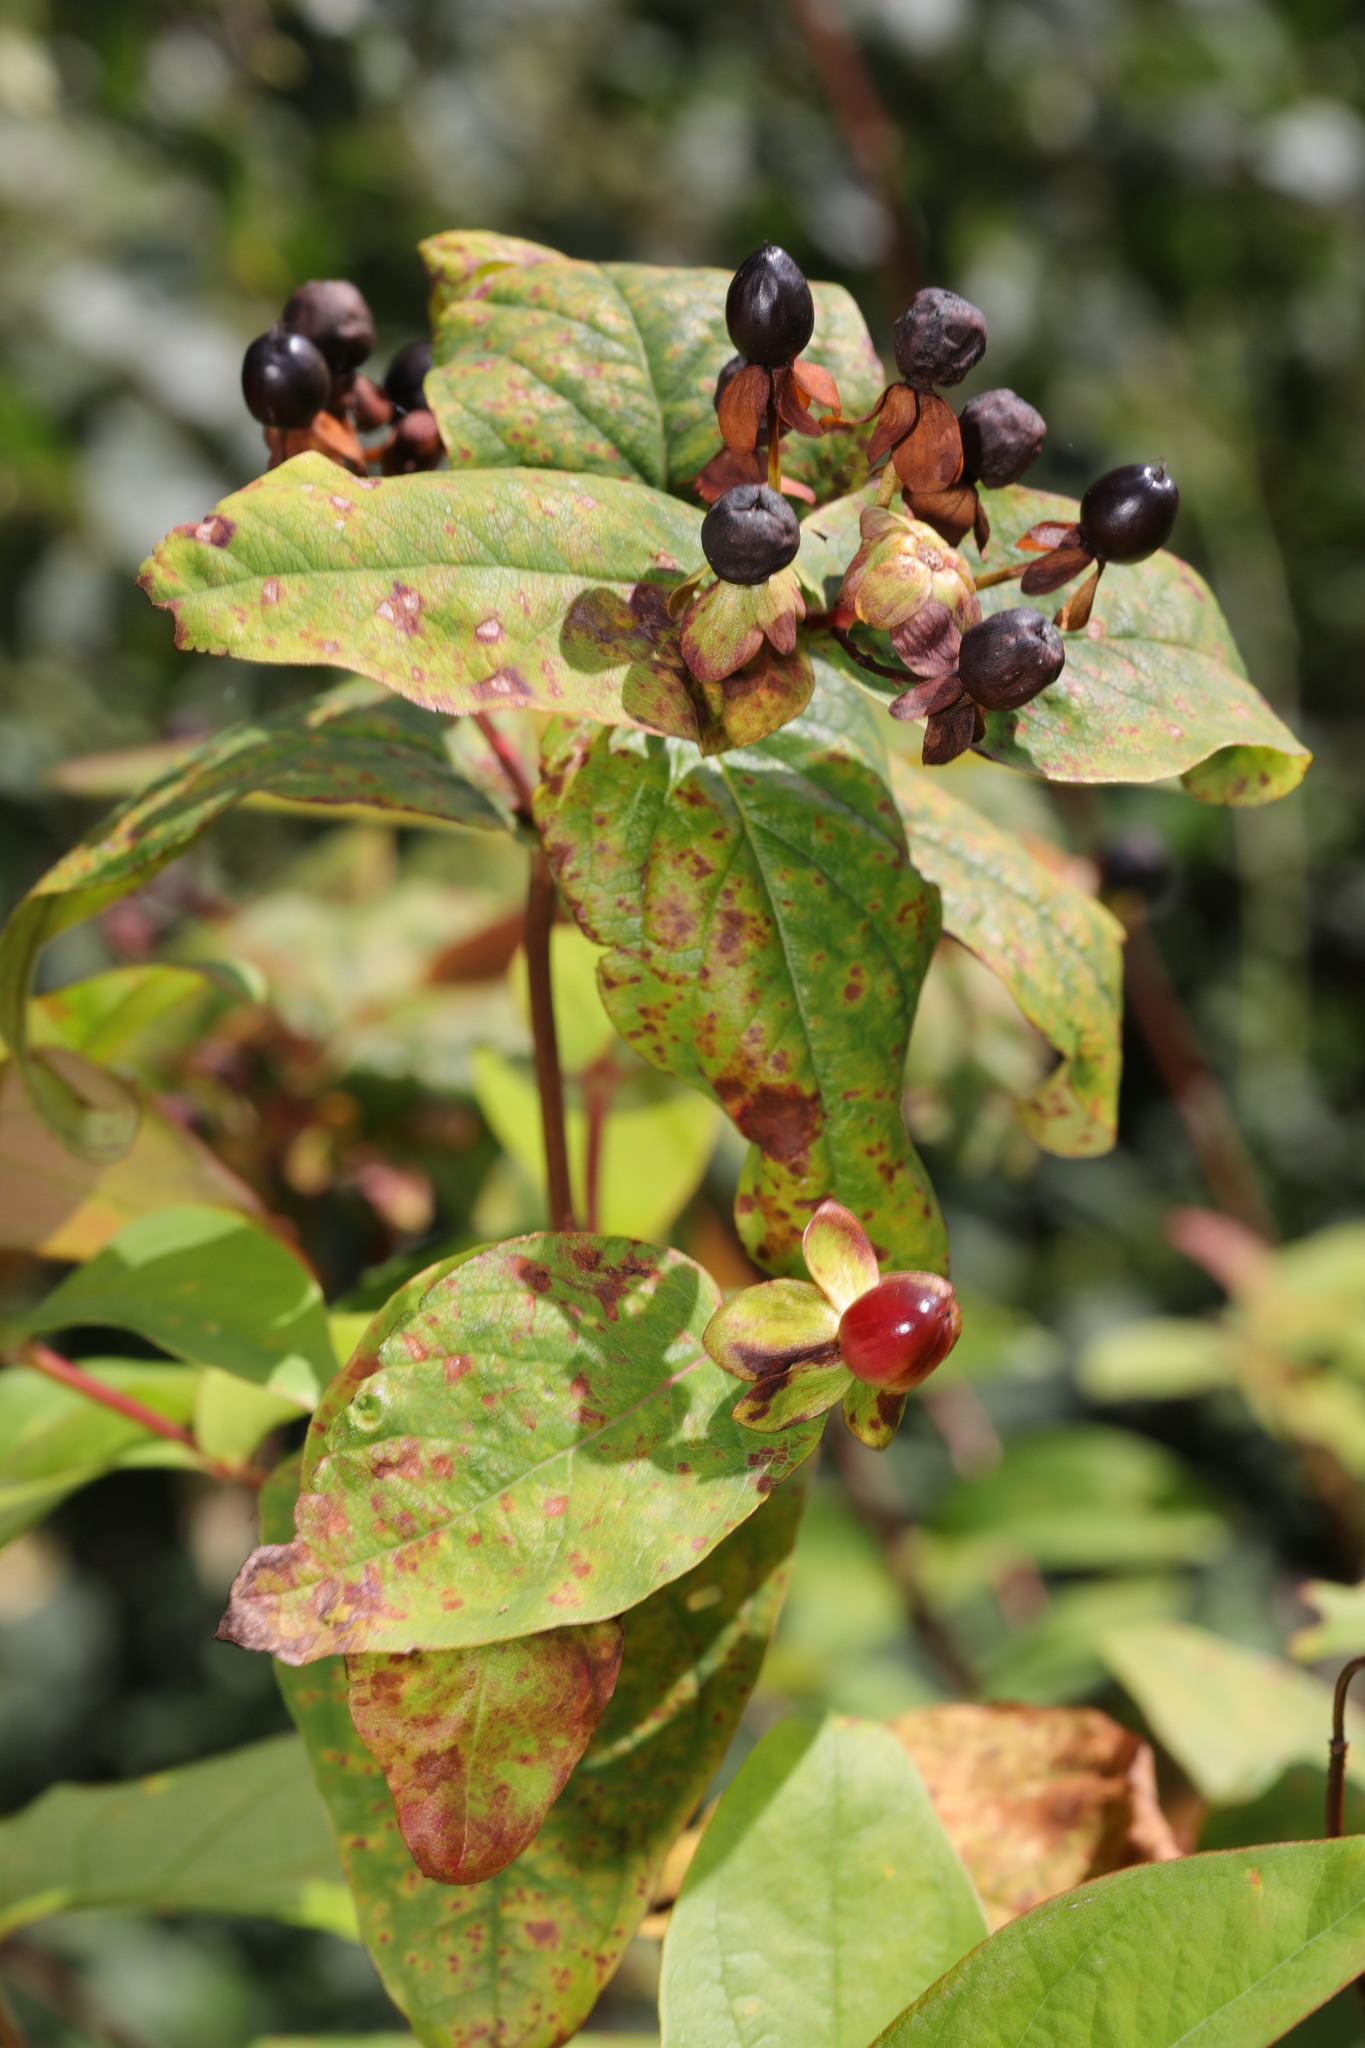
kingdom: Plantae
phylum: Tracheophyta
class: Magnoliopsida
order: Malpighiales
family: Hypericaceae
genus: Hypericum
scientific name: Hypericum androsaemum
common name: Sweet-amber
